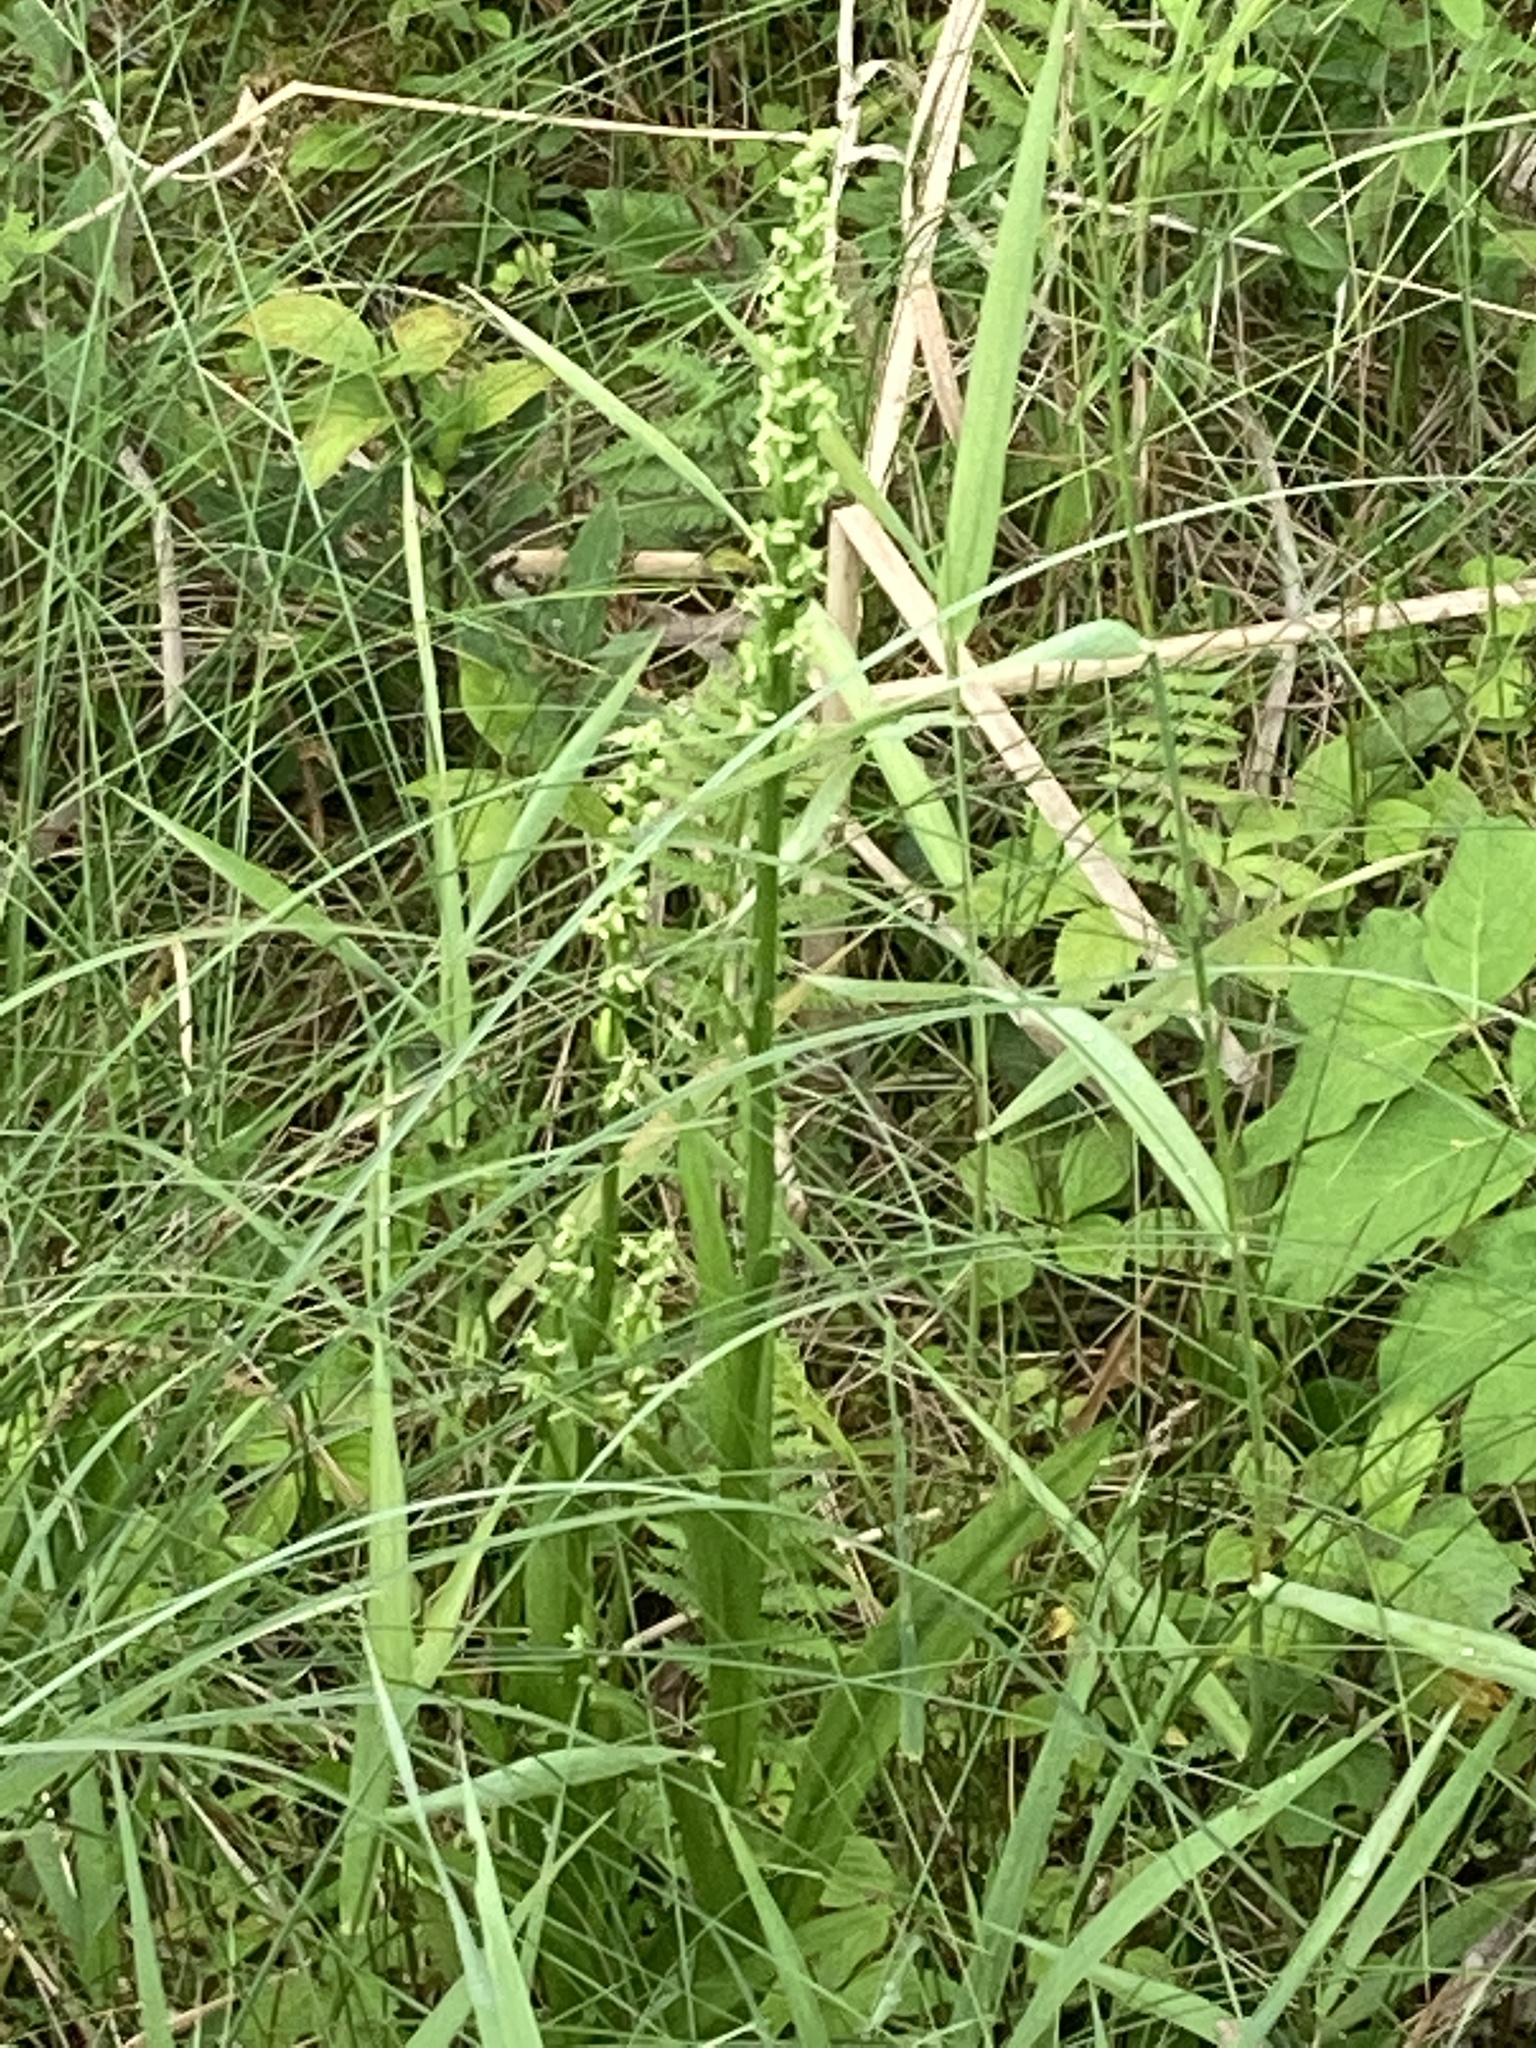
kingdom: Plantae
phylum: Tracheophyta
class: Liliopsida
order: Asparagales
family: Orchidaceae
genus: Platanthera
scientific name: Platanthera huronensis
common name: Fragrant green orchid
